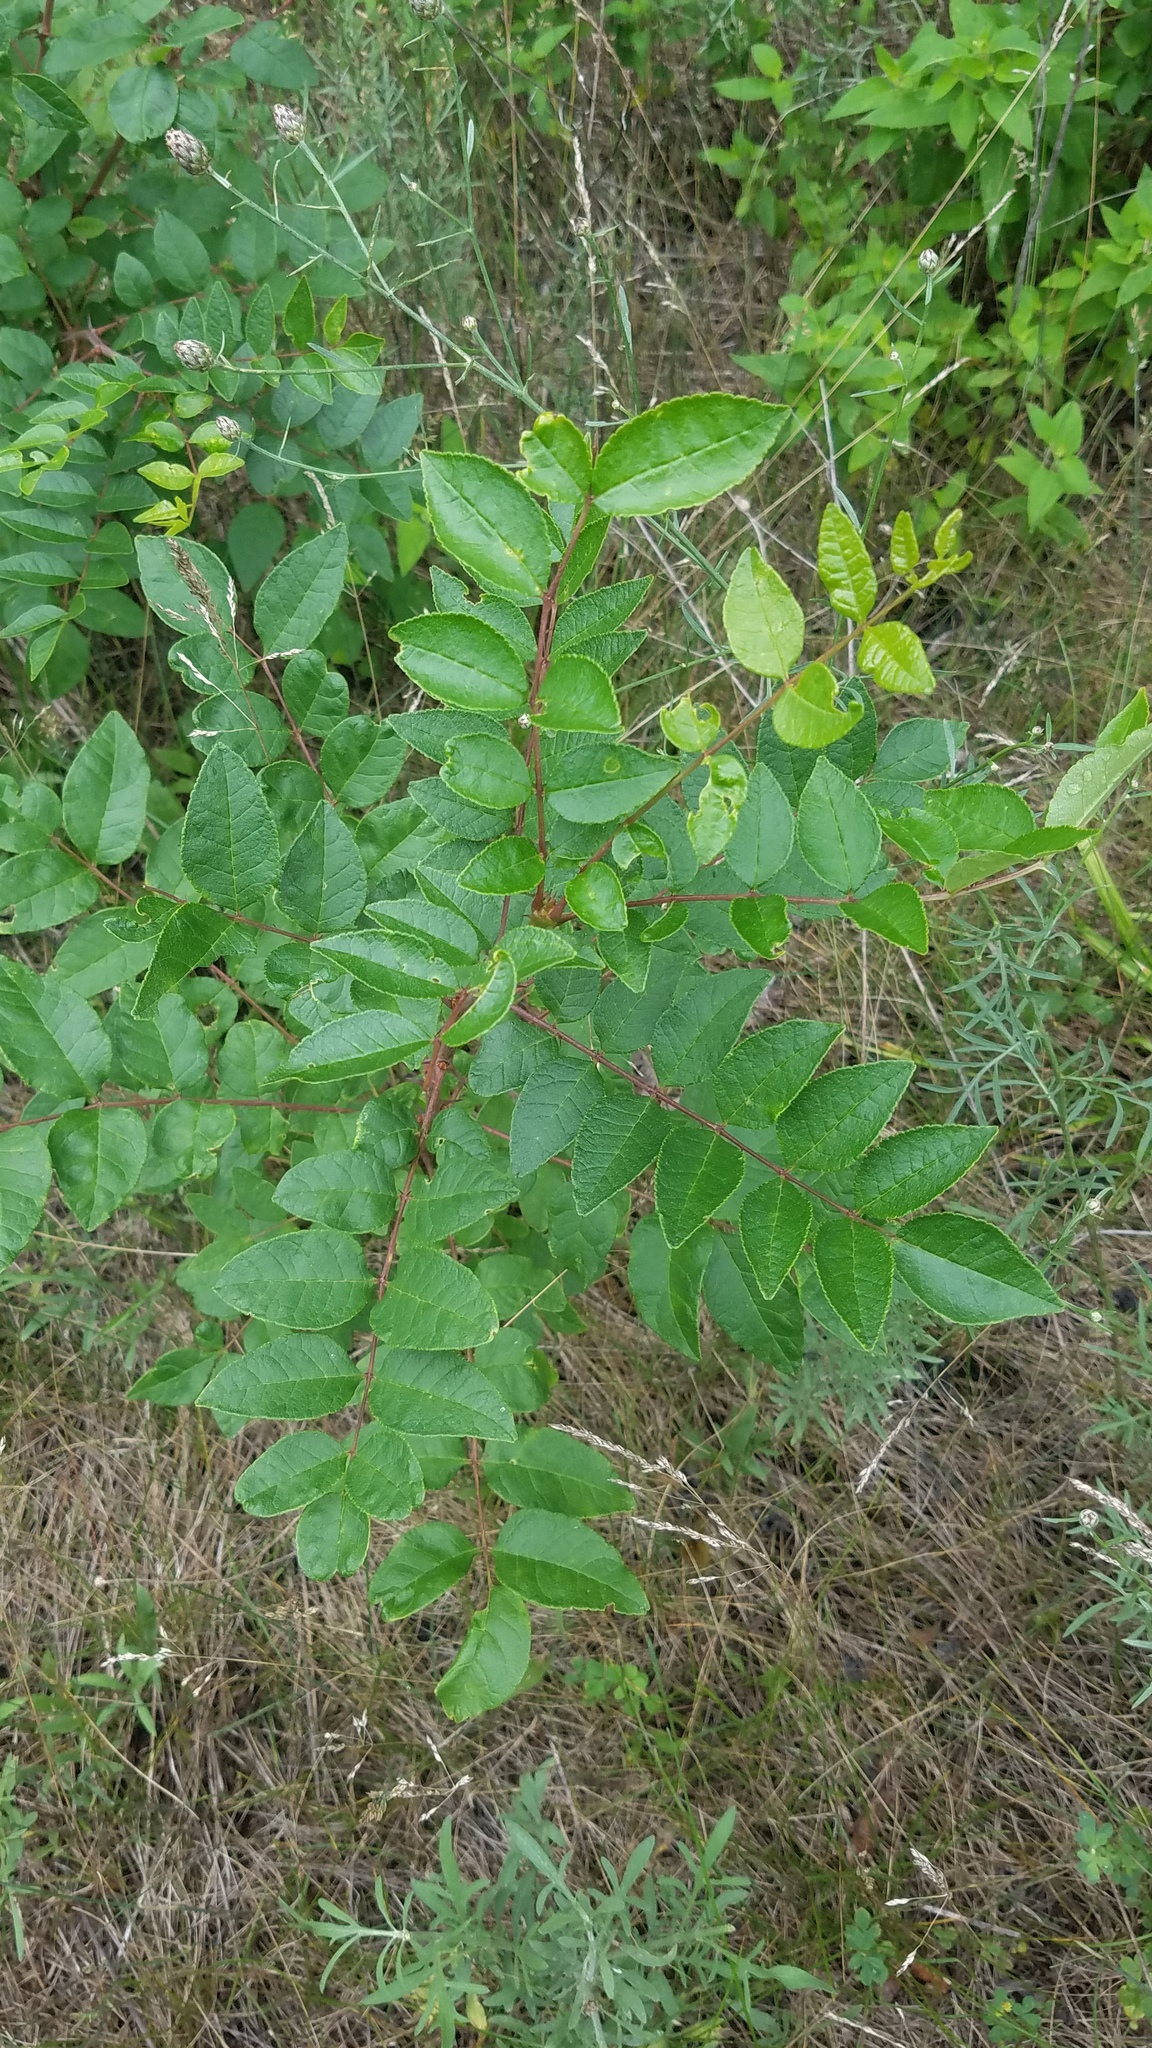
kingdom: Plantae
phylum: Tracheophyta
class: Magnoliopsida
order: Sapindales
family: Rutaceae
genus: Zanthoxylum
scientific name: Zanthoxylum americanum
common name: Northern prickly-ash
